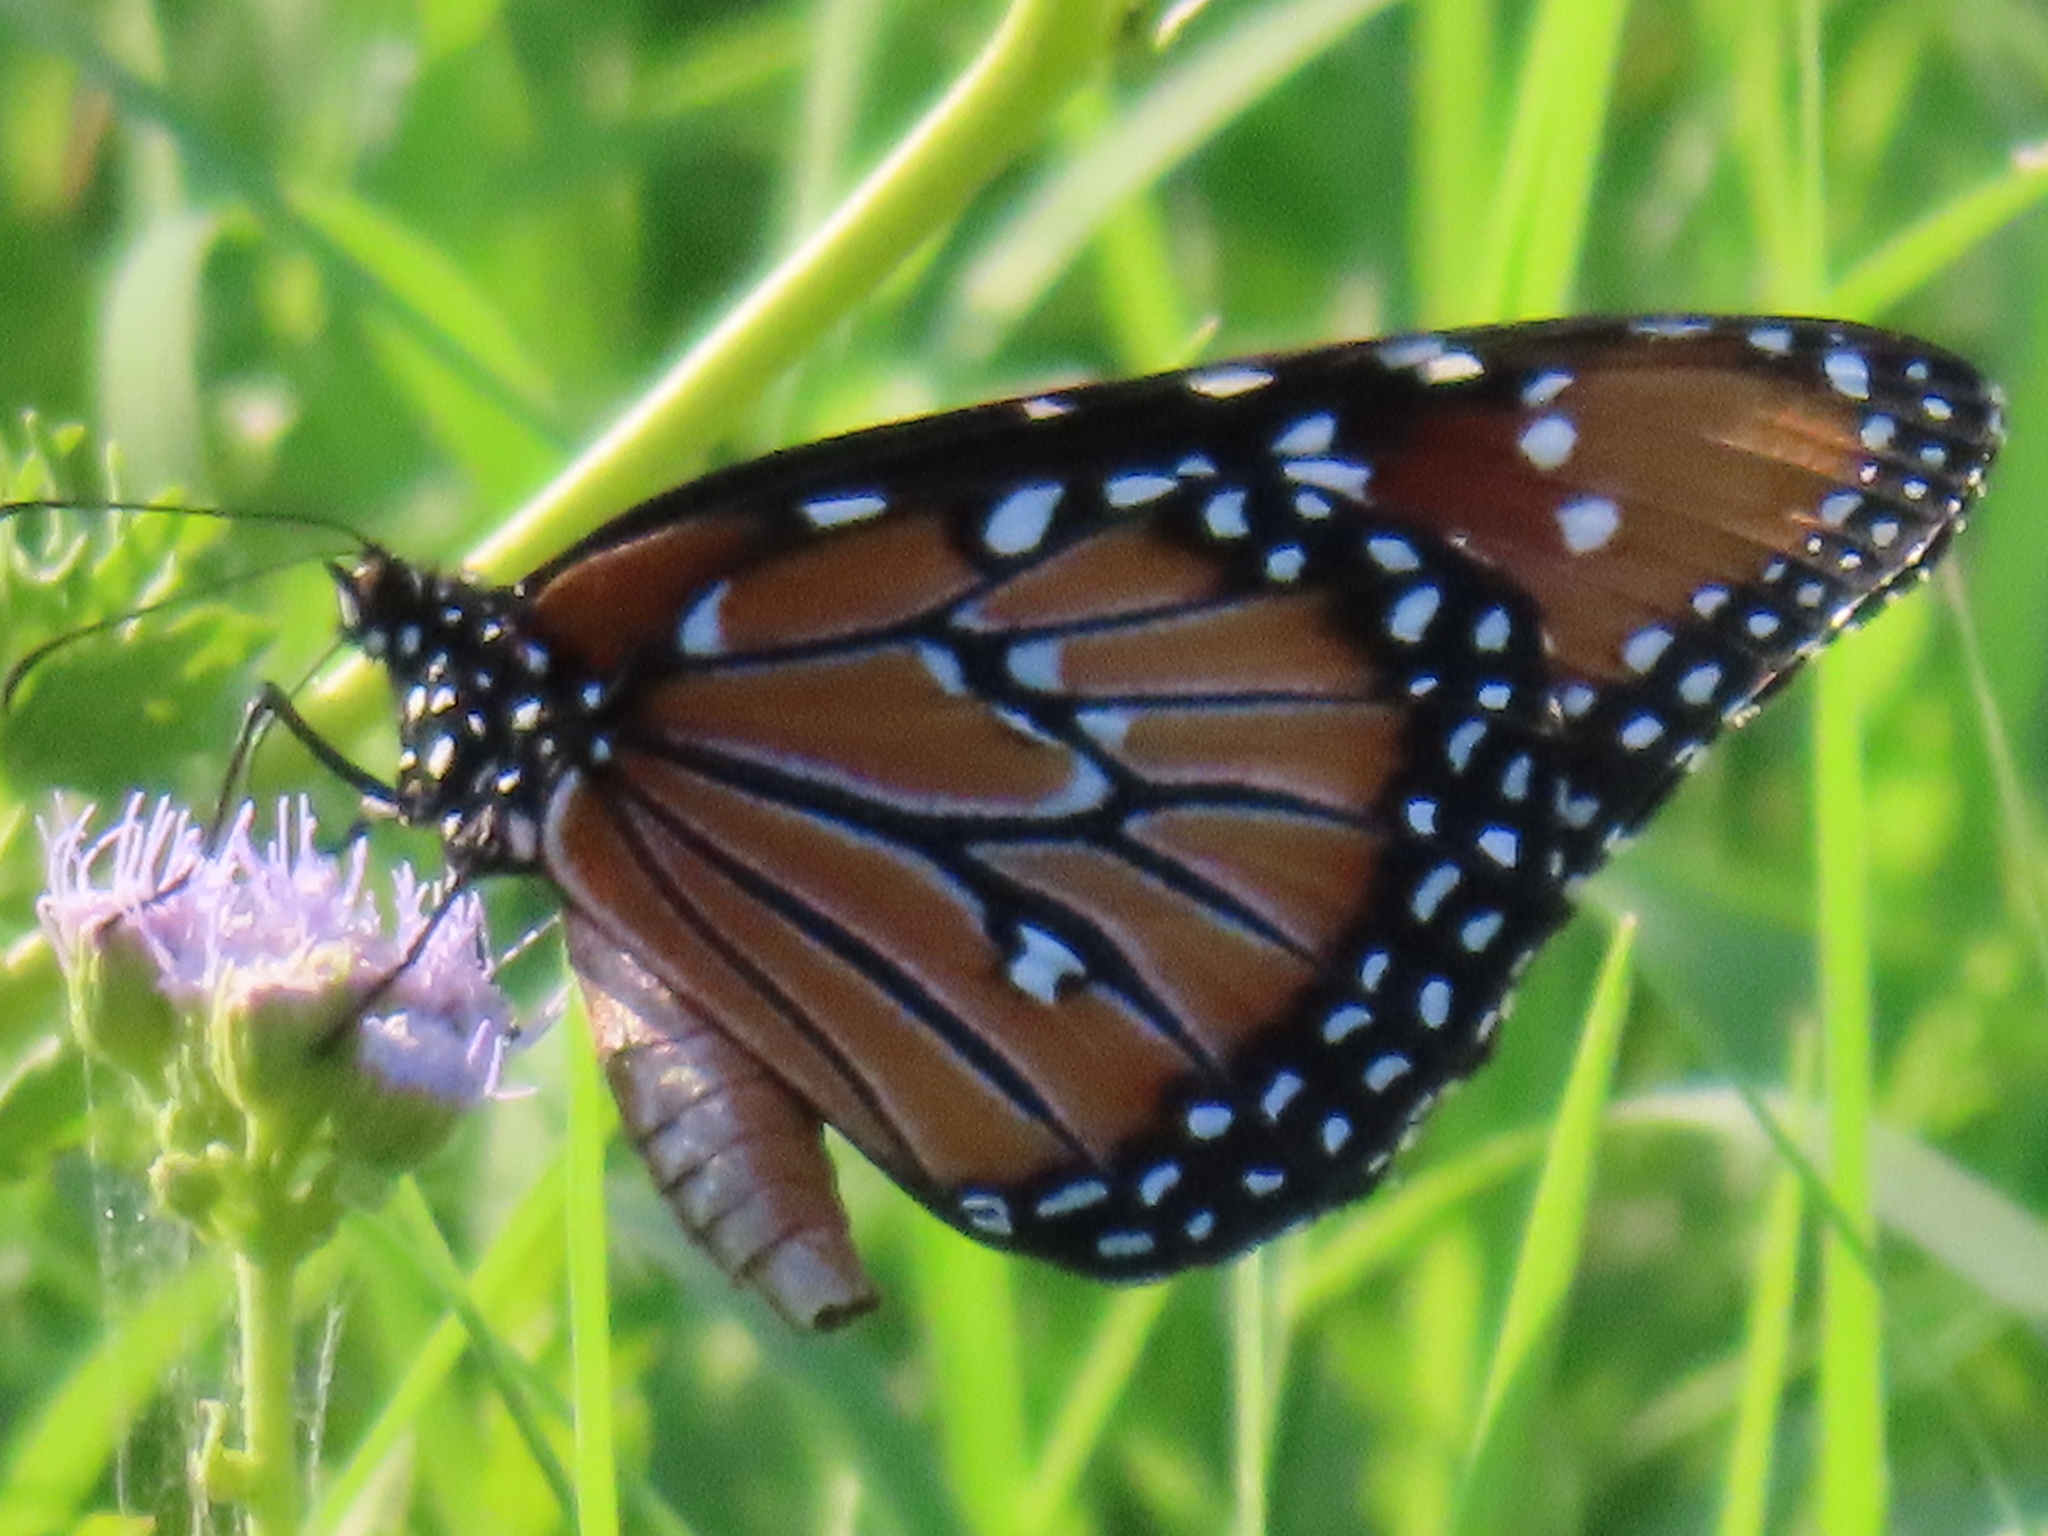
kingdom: Animalia
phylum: Arthropoda
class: Insecta
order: Lepidoptera
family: Nymphalidae
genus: Danaus
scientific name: Danaus gilippus
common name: Queen
